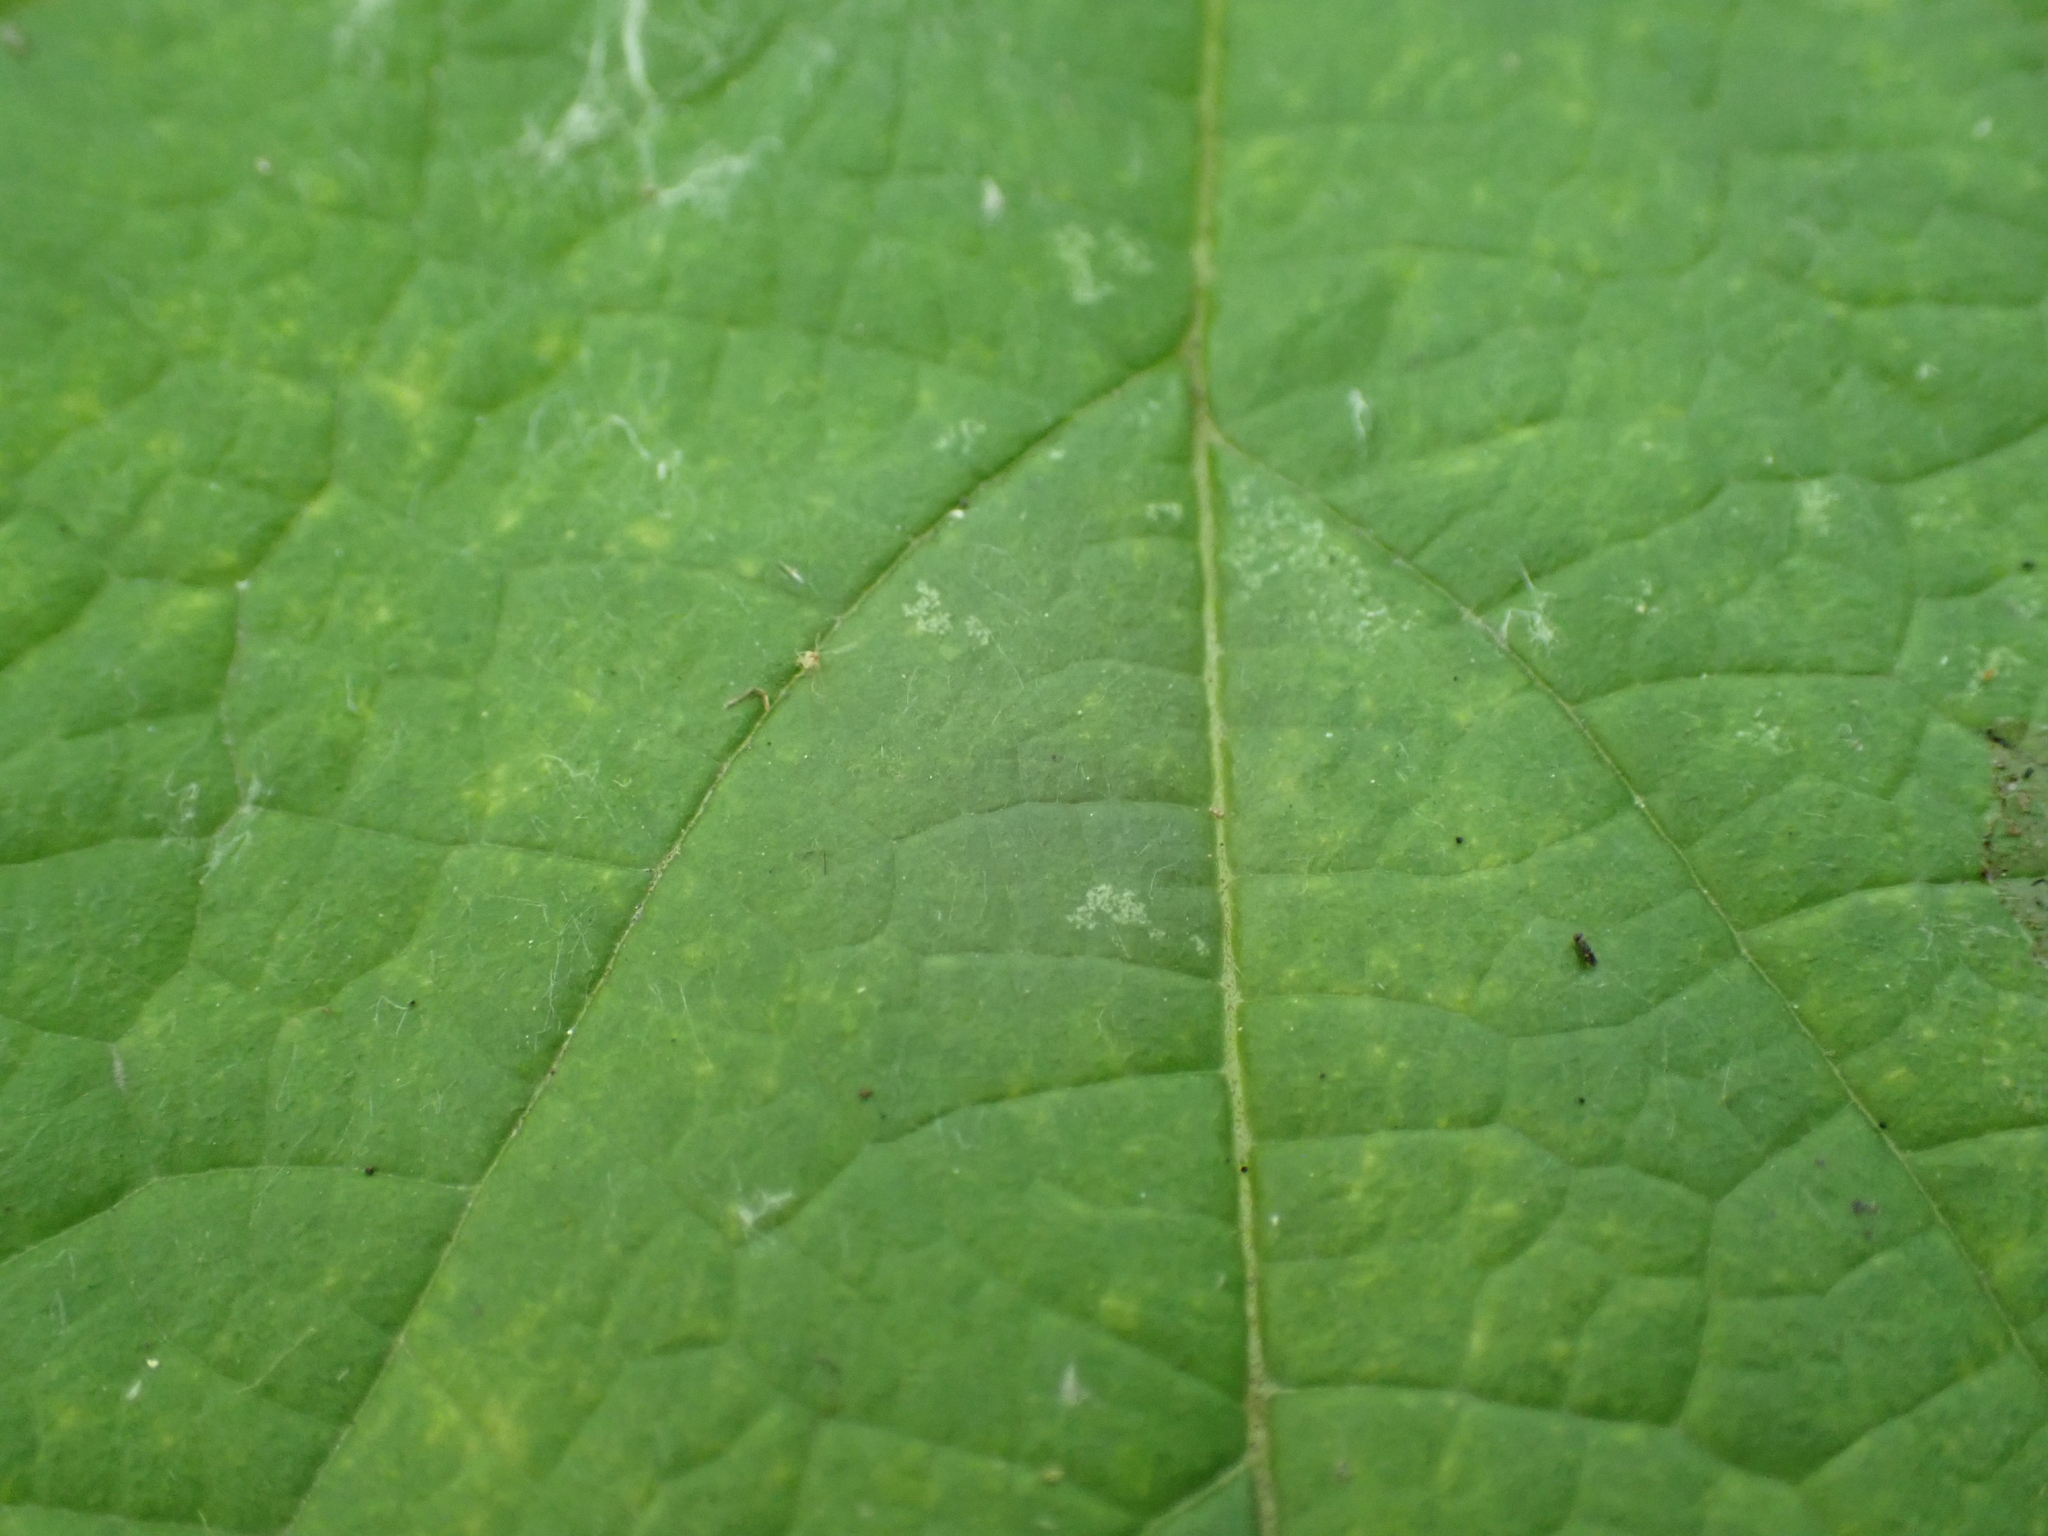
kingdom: Plantae
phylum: Tracheophyta
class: Magnoliopsida
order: Rosales
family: Rosaceae
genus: Rubus
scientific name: Rubus odoratus
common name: Purple-flowered raspberry
